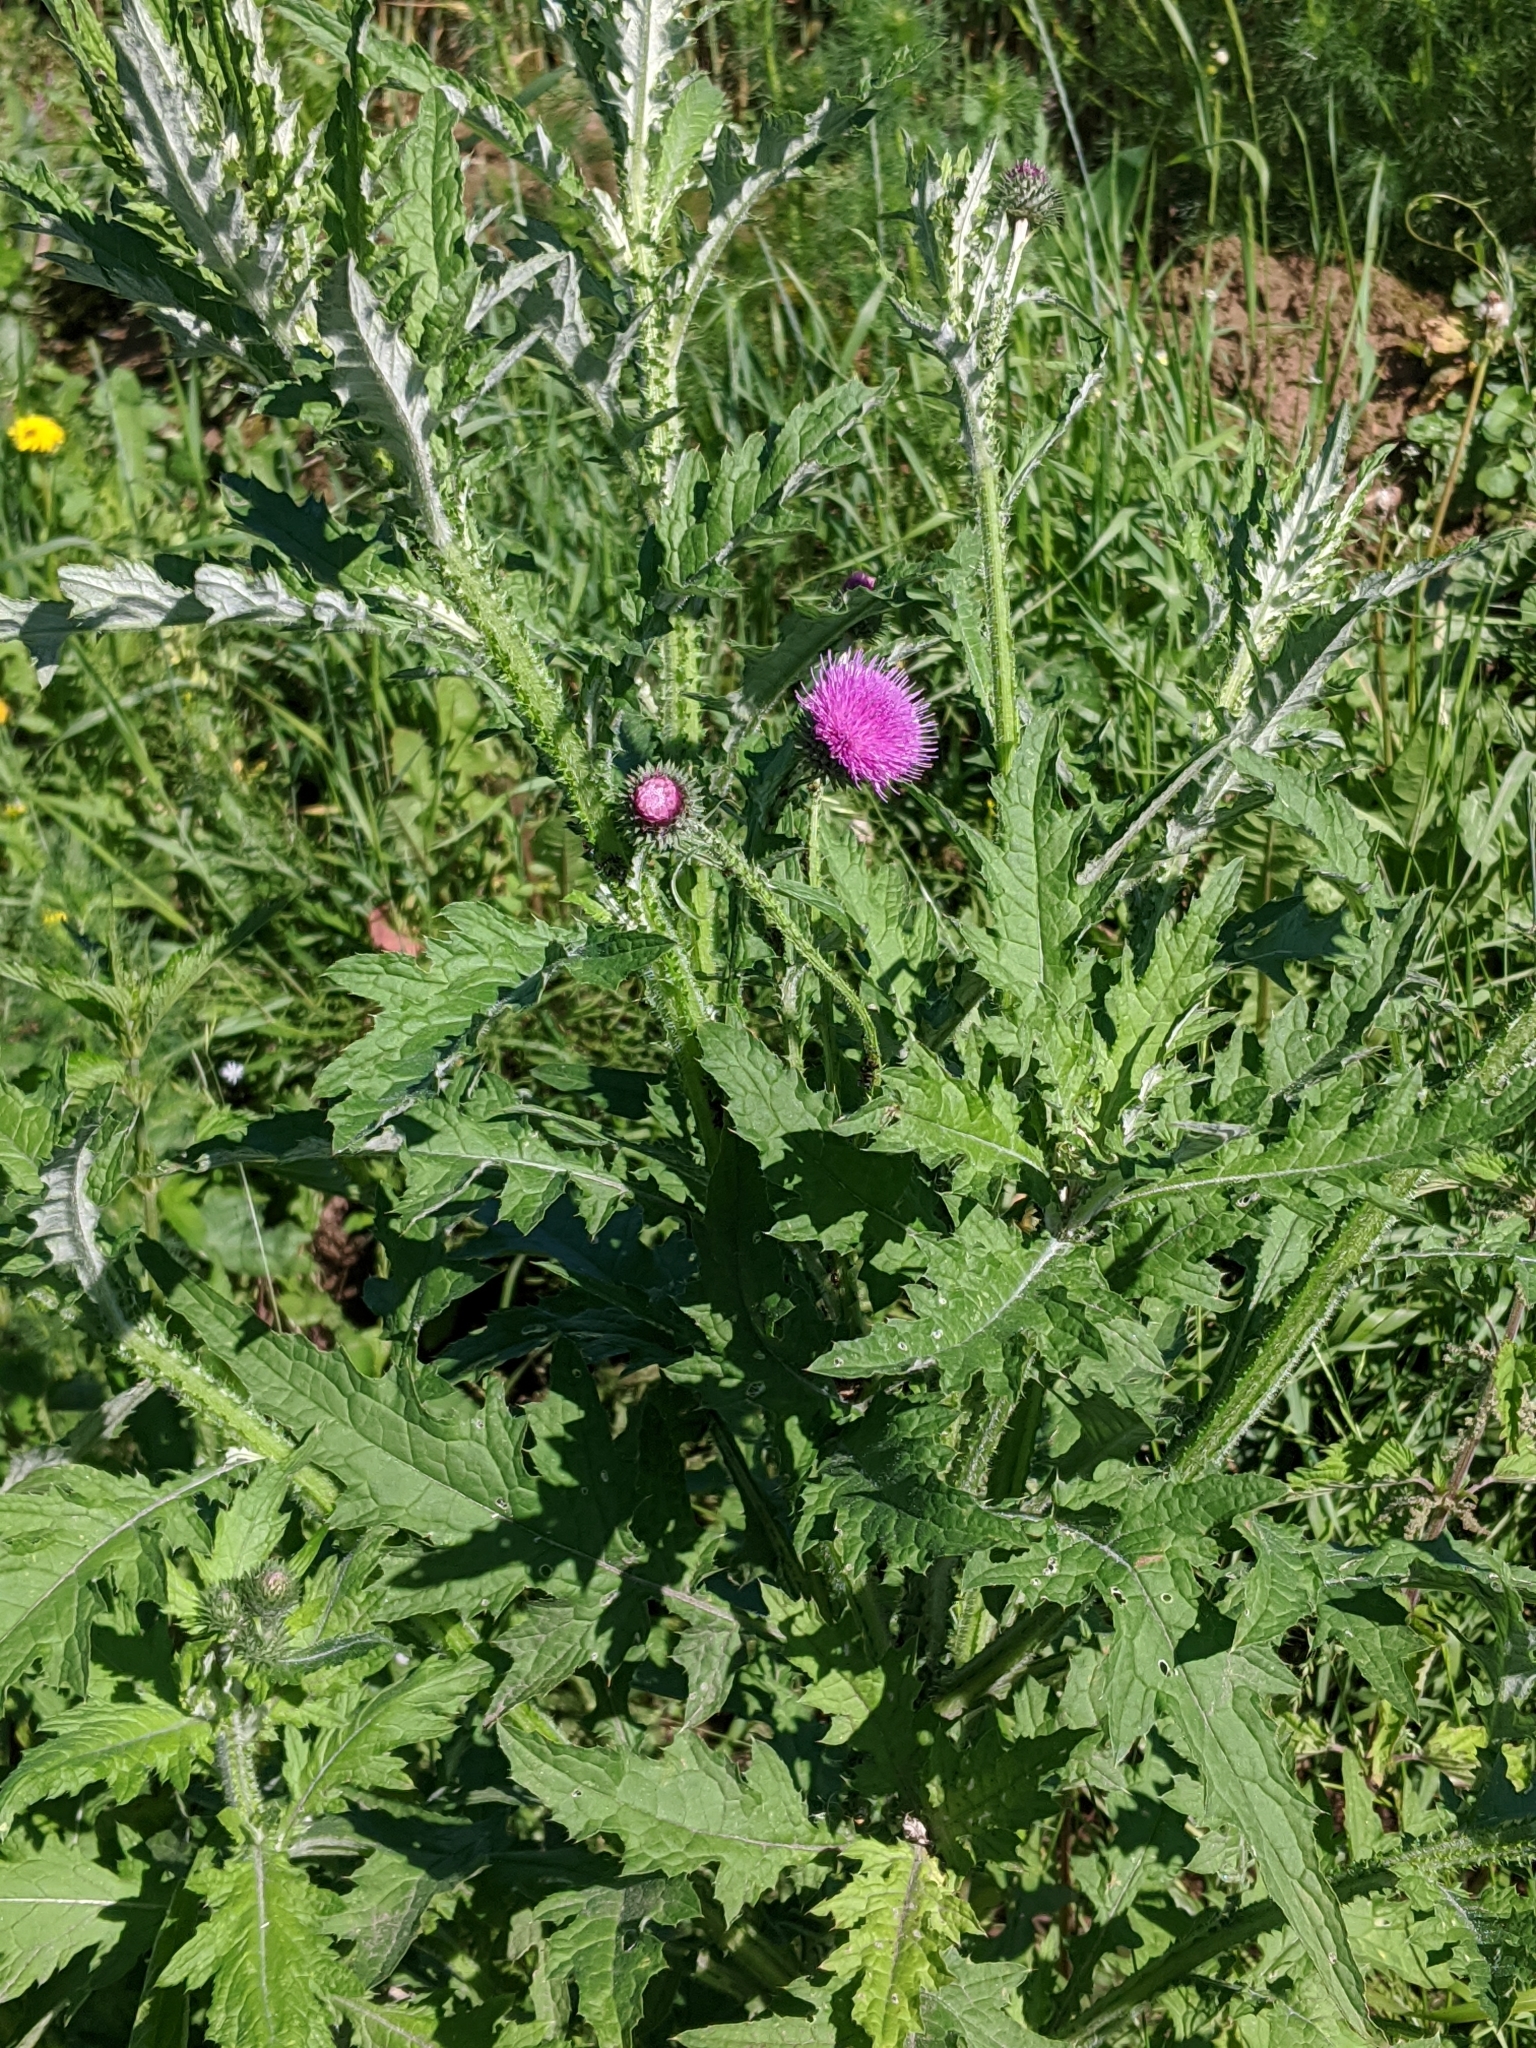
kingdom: Plantae
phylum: Tracheophyta
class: Magnoliopsida
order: Asterales
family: Asteraceae
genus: Carduus
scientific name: Carduus crispus
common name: Welted thistle
